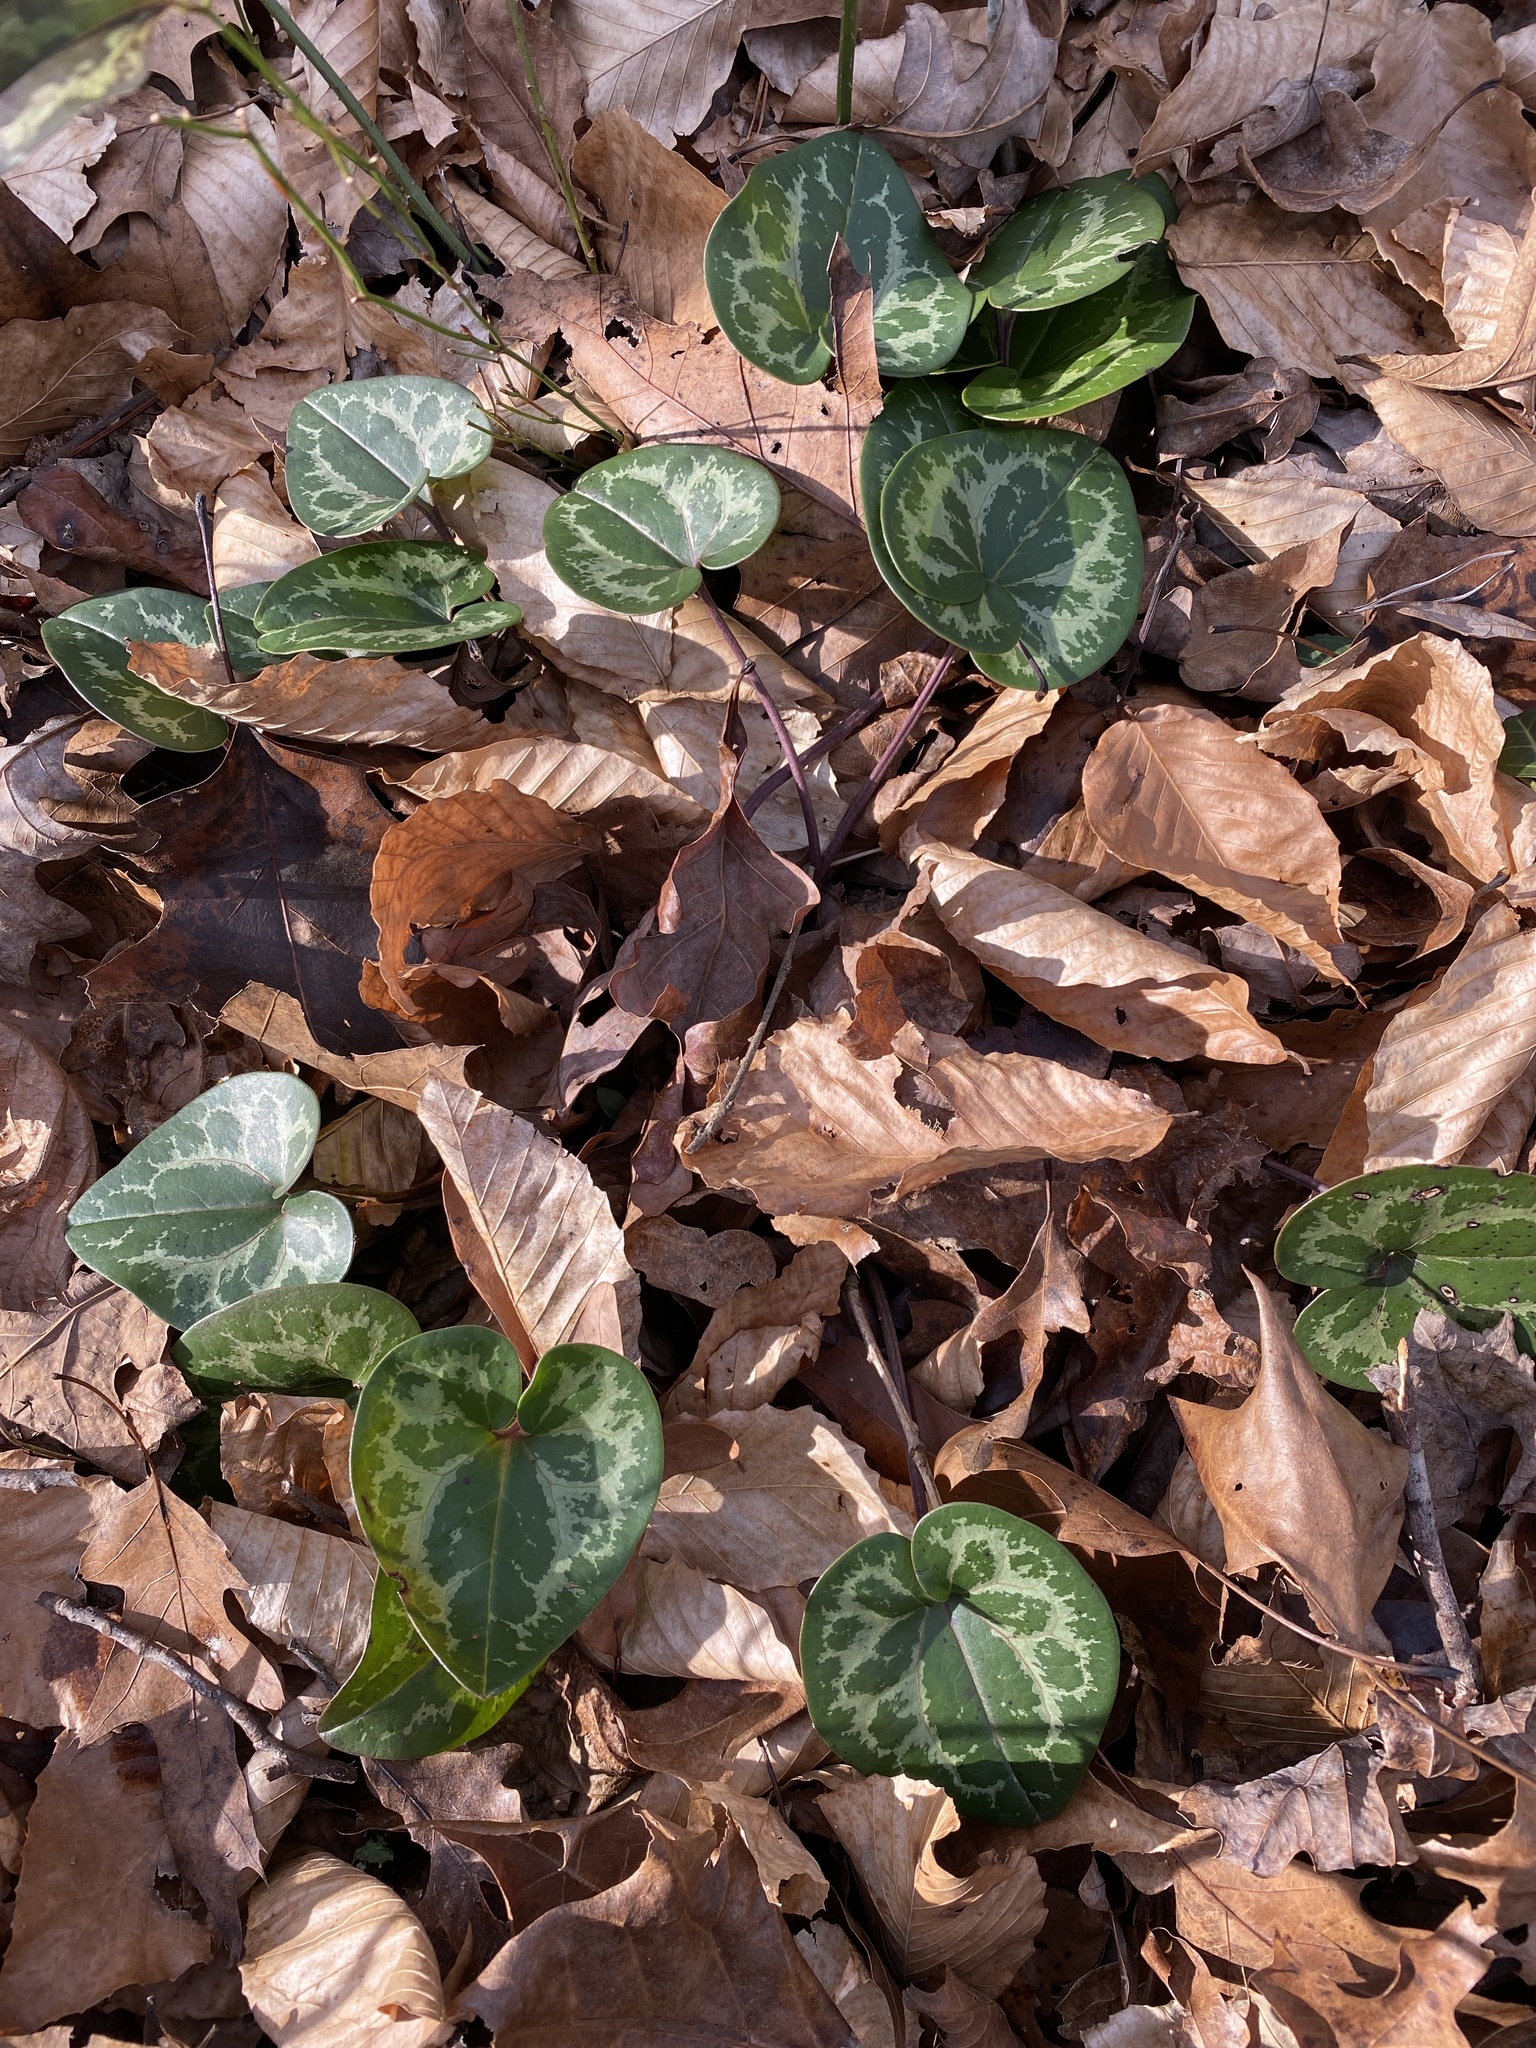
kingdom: Plantae
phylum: Tracheophyta
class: Magnoliopsida
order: Piperales
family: Aristolochiaceae
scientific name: Aristolochiaceae
